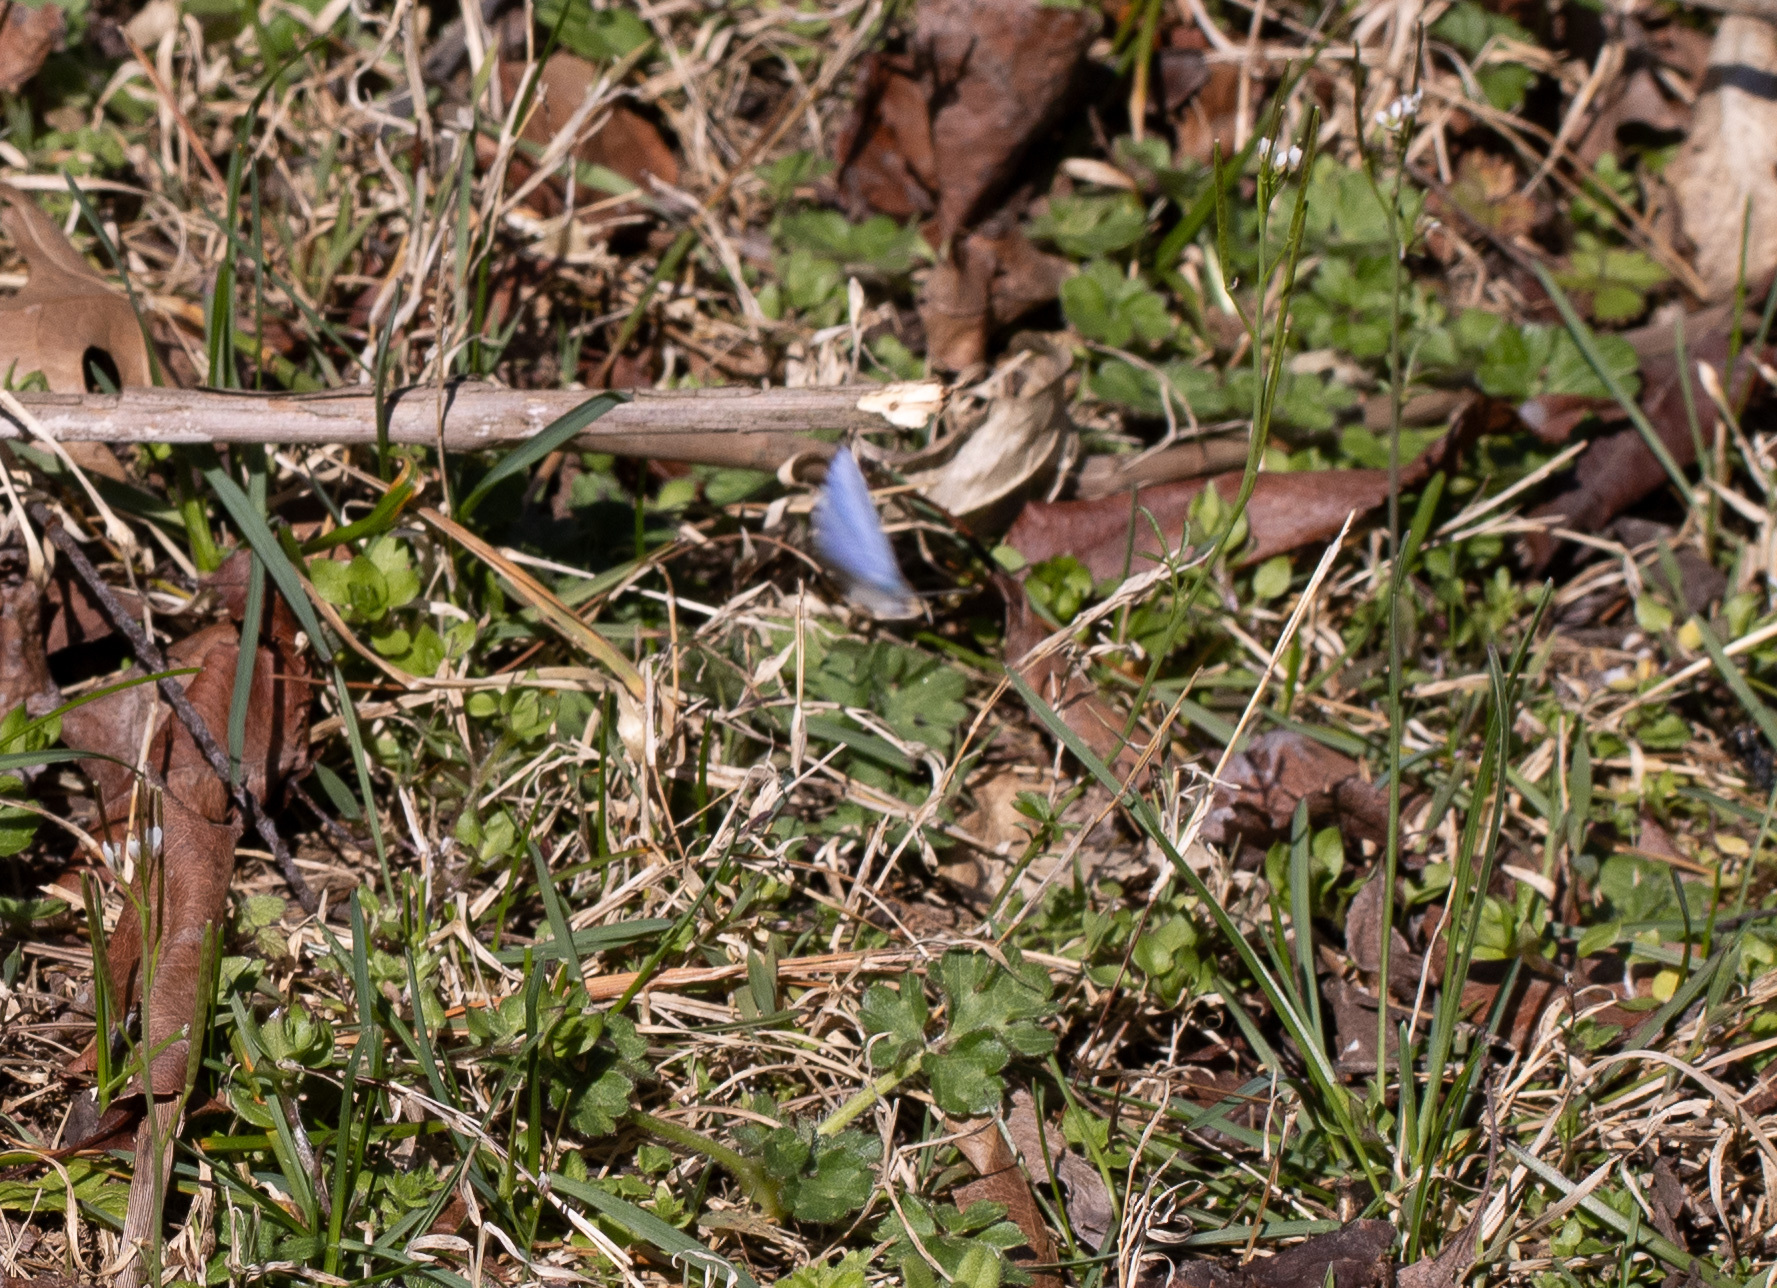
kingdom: Animalia
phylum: Arthropoda
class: Insecta
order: Lepidoptera
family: Lycaenidae
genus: Cyaniris
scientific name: Cyaniris neglecta
